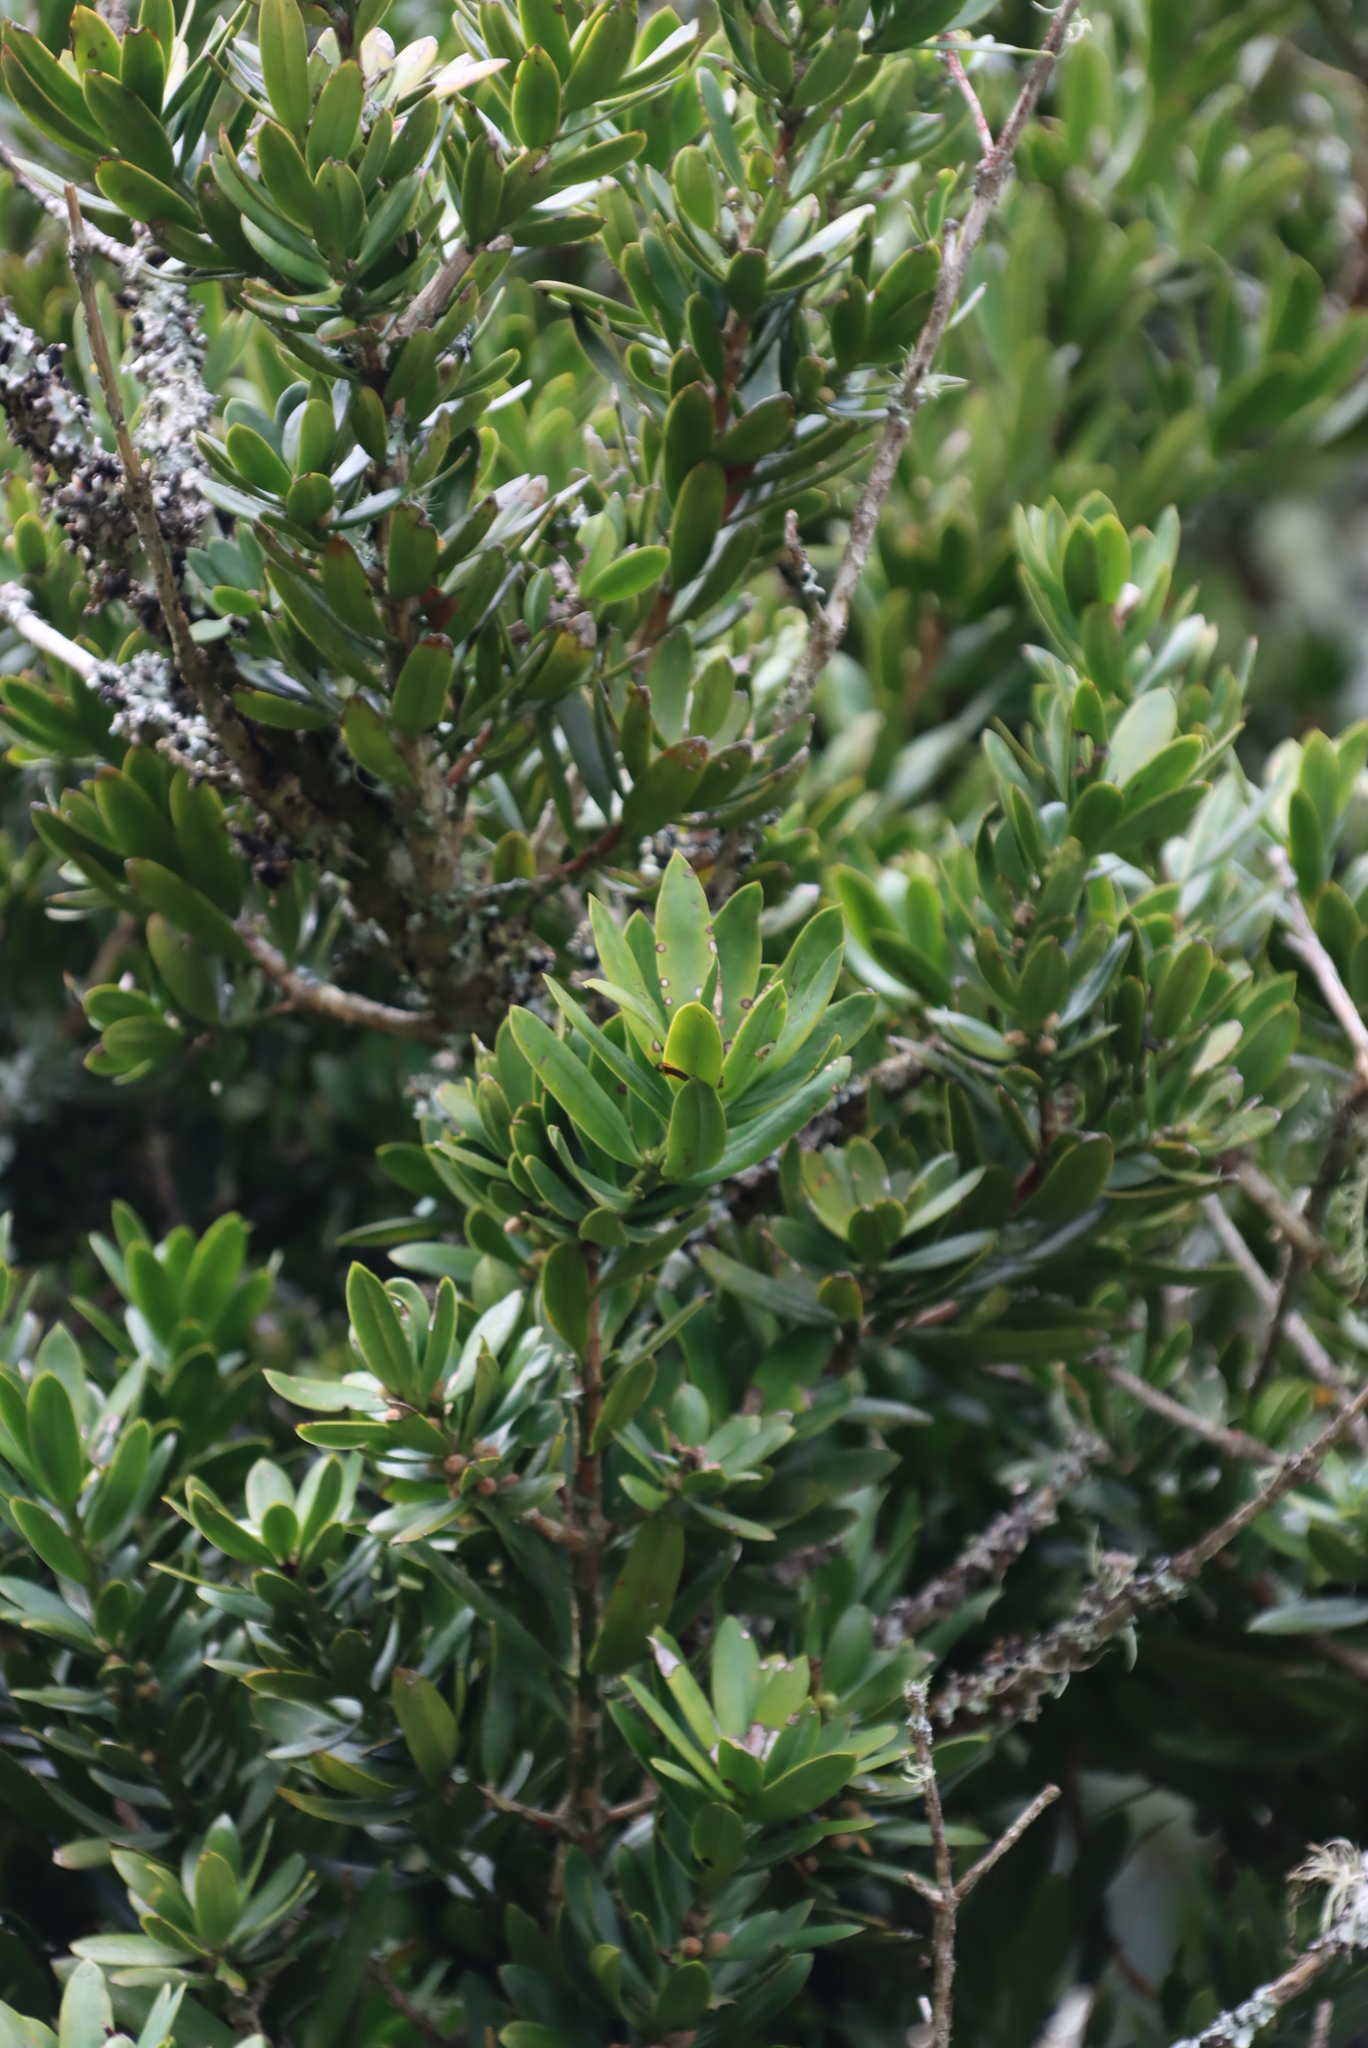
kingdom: Plantae
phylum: Tracheophyta
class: Pinopsida
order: Pinales
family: Podocarpaceae
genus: Podocarpus
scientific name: Podocarpus latifolius
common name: True yellowwood
